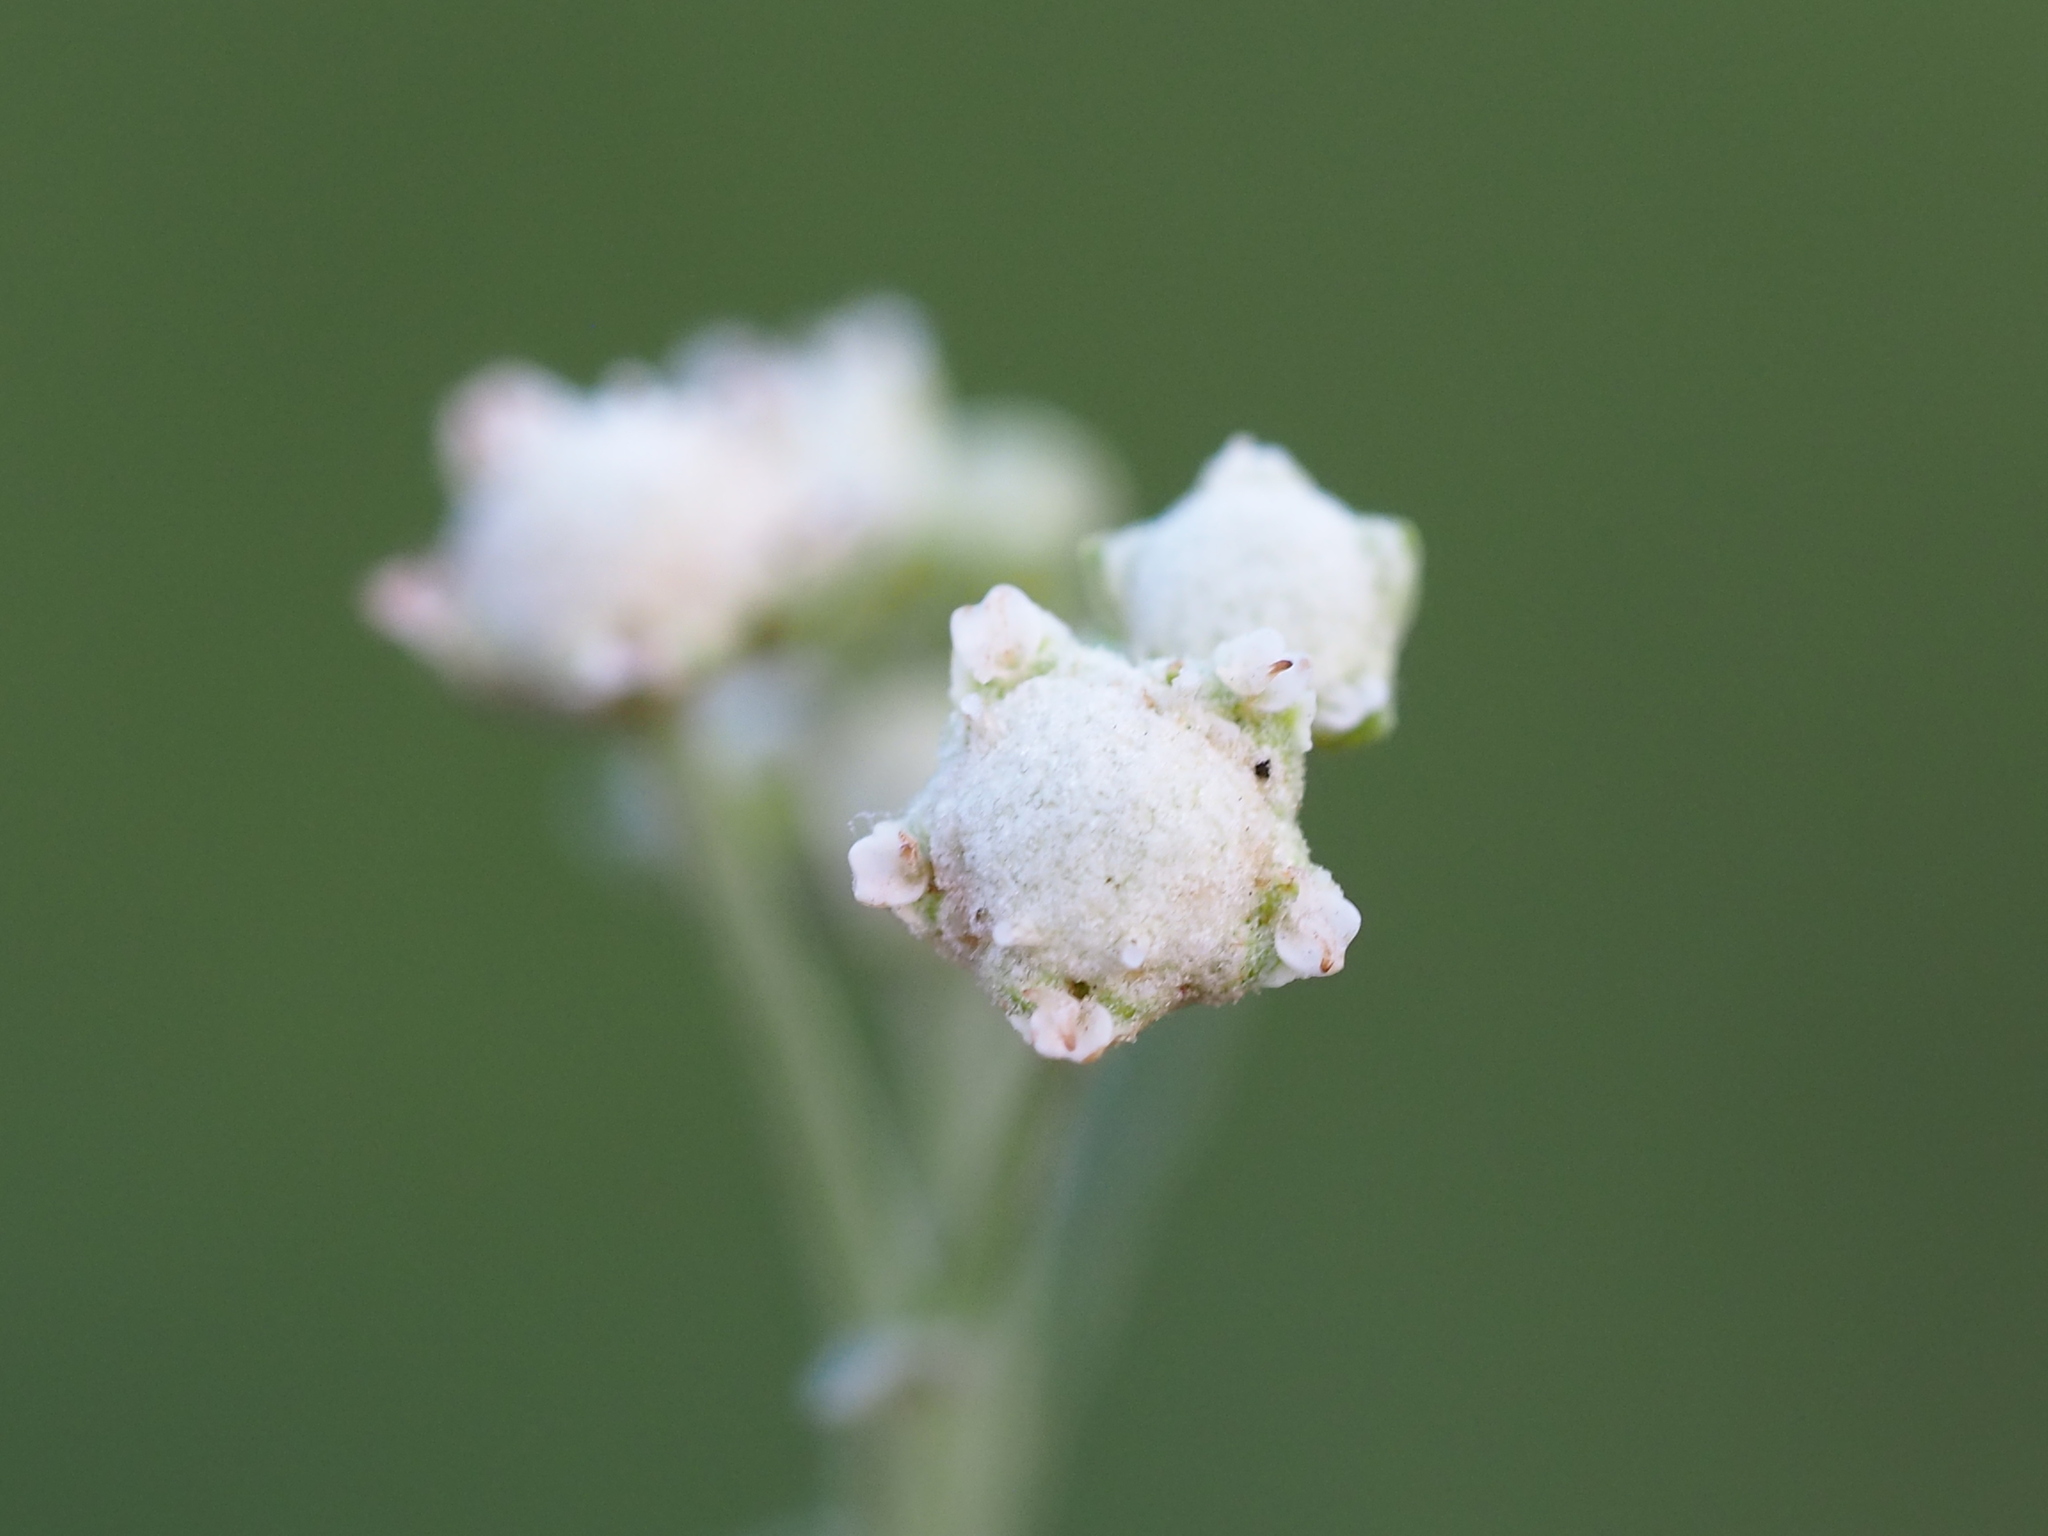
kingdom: Plantae
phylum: Tracheophyta
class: Magnoliopsida
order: Asterales
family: Asteraceae
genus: Parthenium
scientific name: Parthenium hysterophorus
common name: Santa maria feverfew
